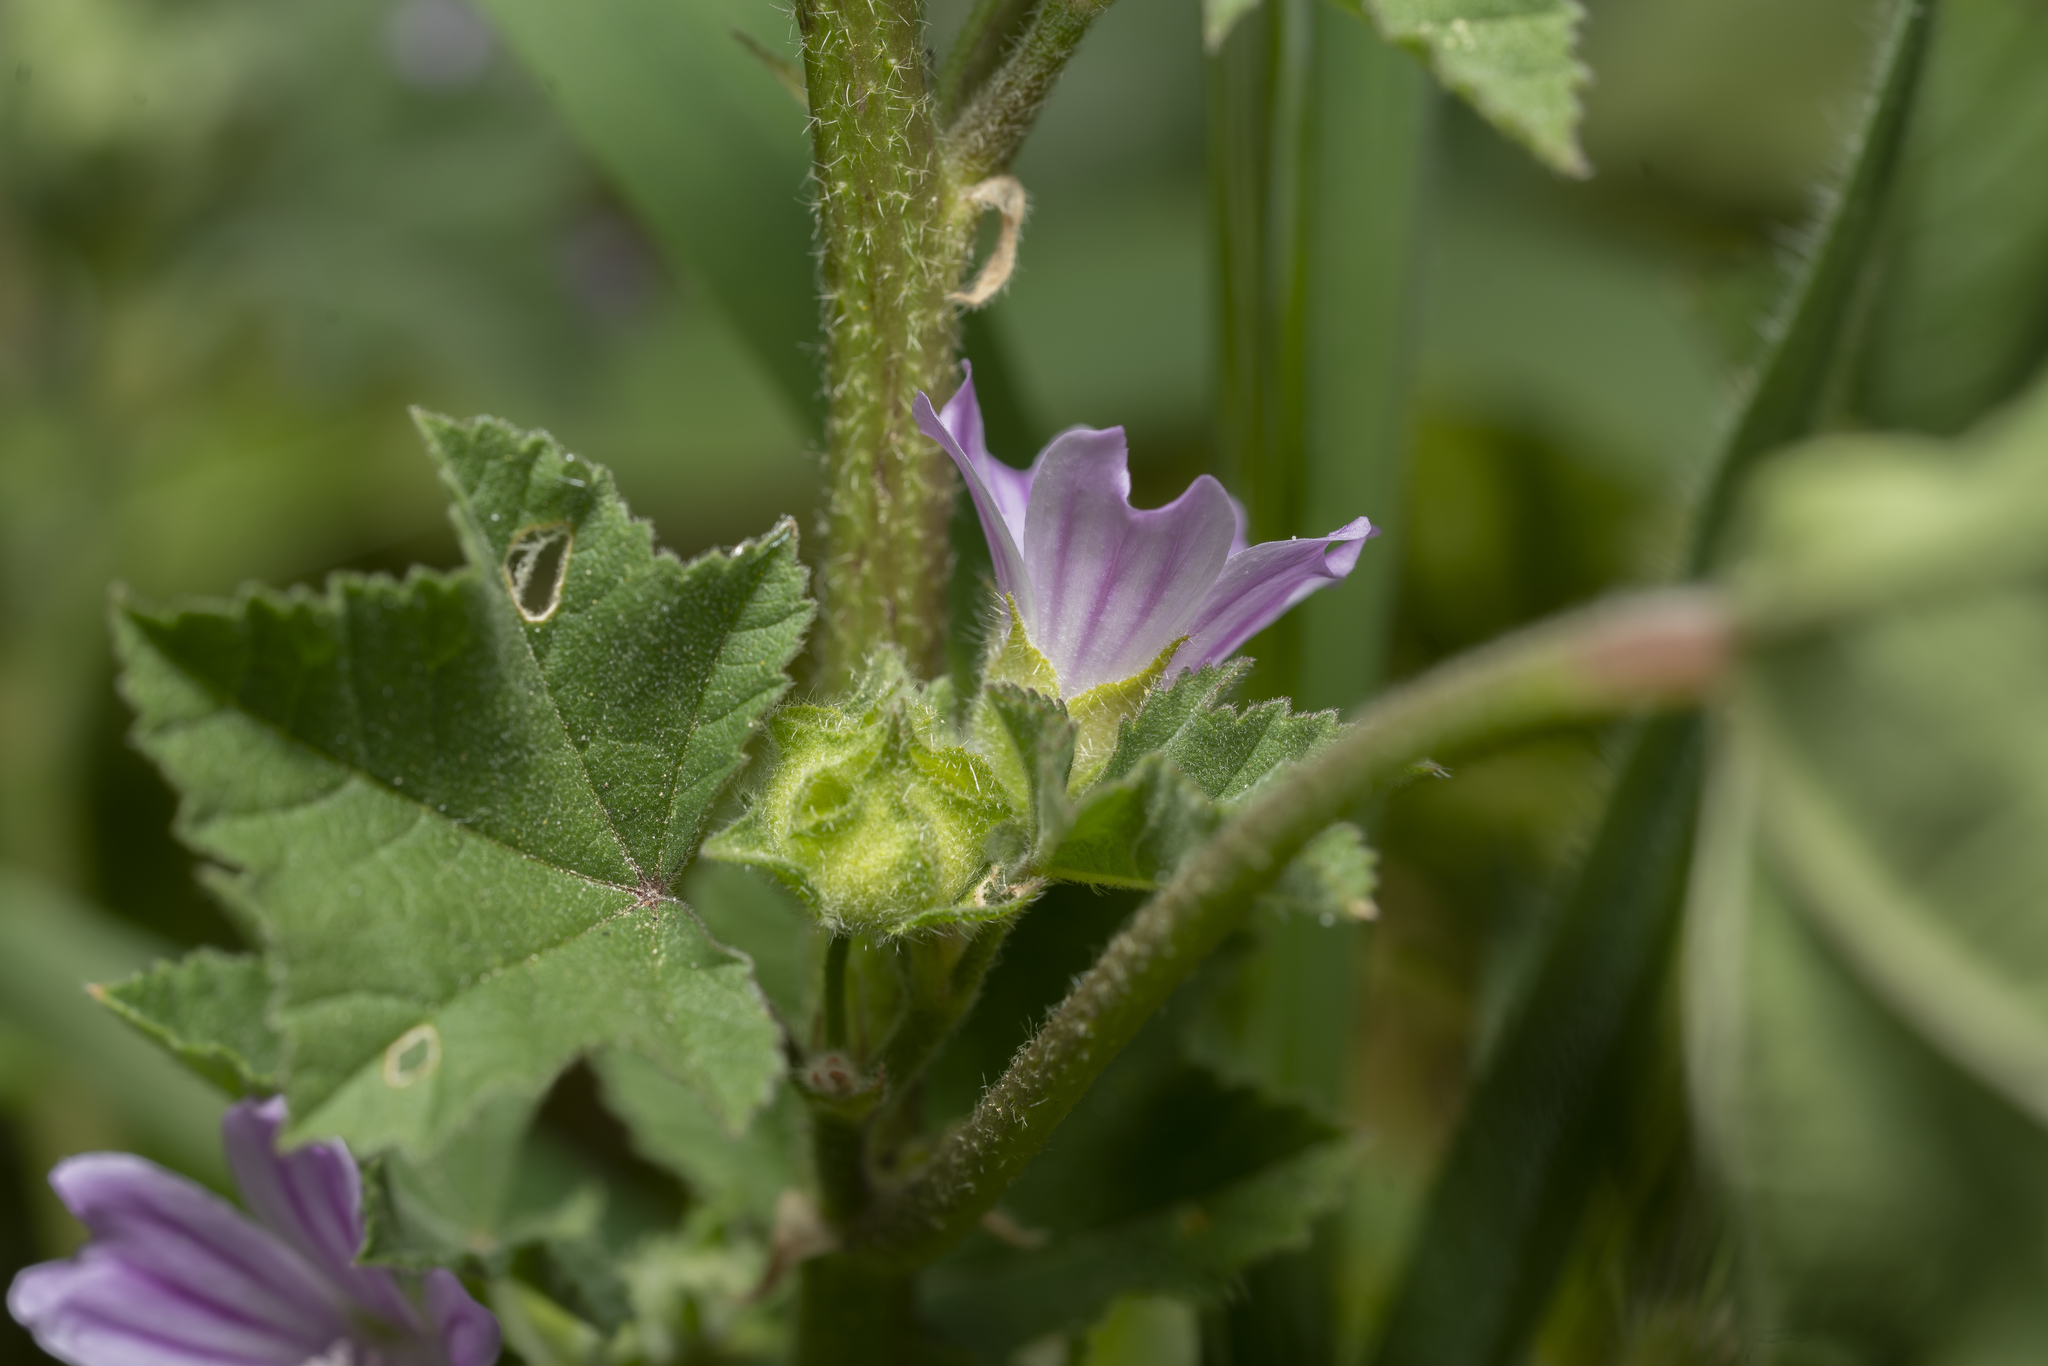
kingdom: Plantae
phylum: Tracheophyta
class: Magnoliopsida
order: Malvales
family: Malvaceae
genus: Malva
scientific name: Malva multiflora
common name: Cheeseweed
